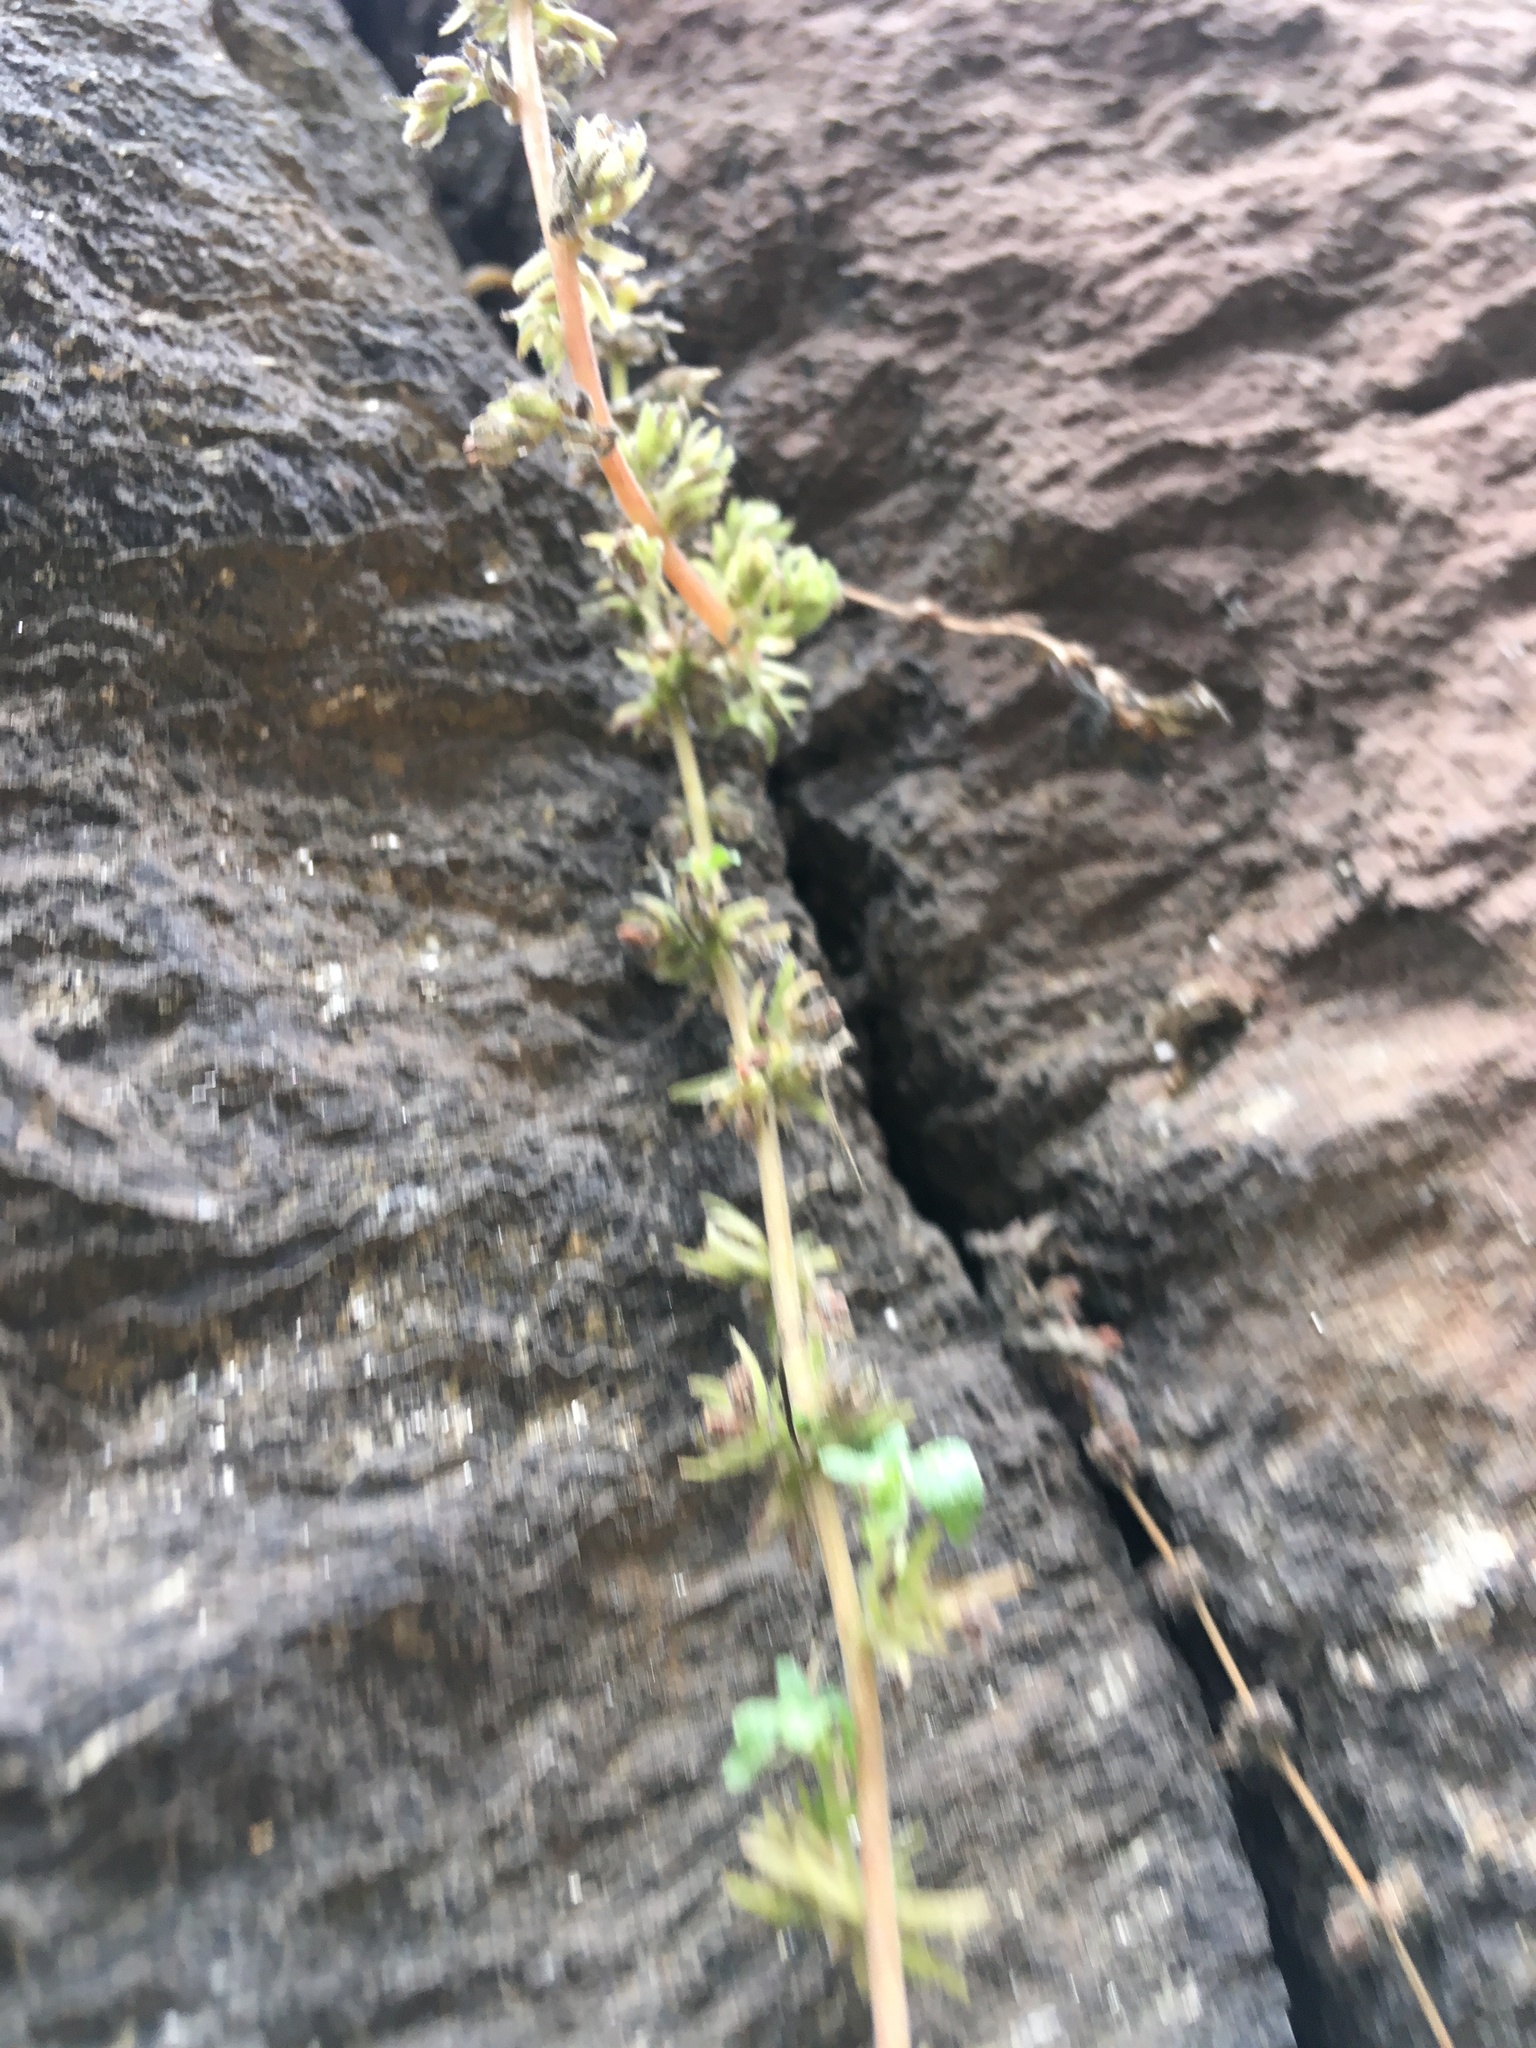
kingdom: Plantae
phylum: Tracheophyta
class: Magnoliopsida
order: Rosales
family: Urticaceae
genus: Parietaria
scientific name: Parietaria pensylvanica
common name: Pennsylvania pellitory
